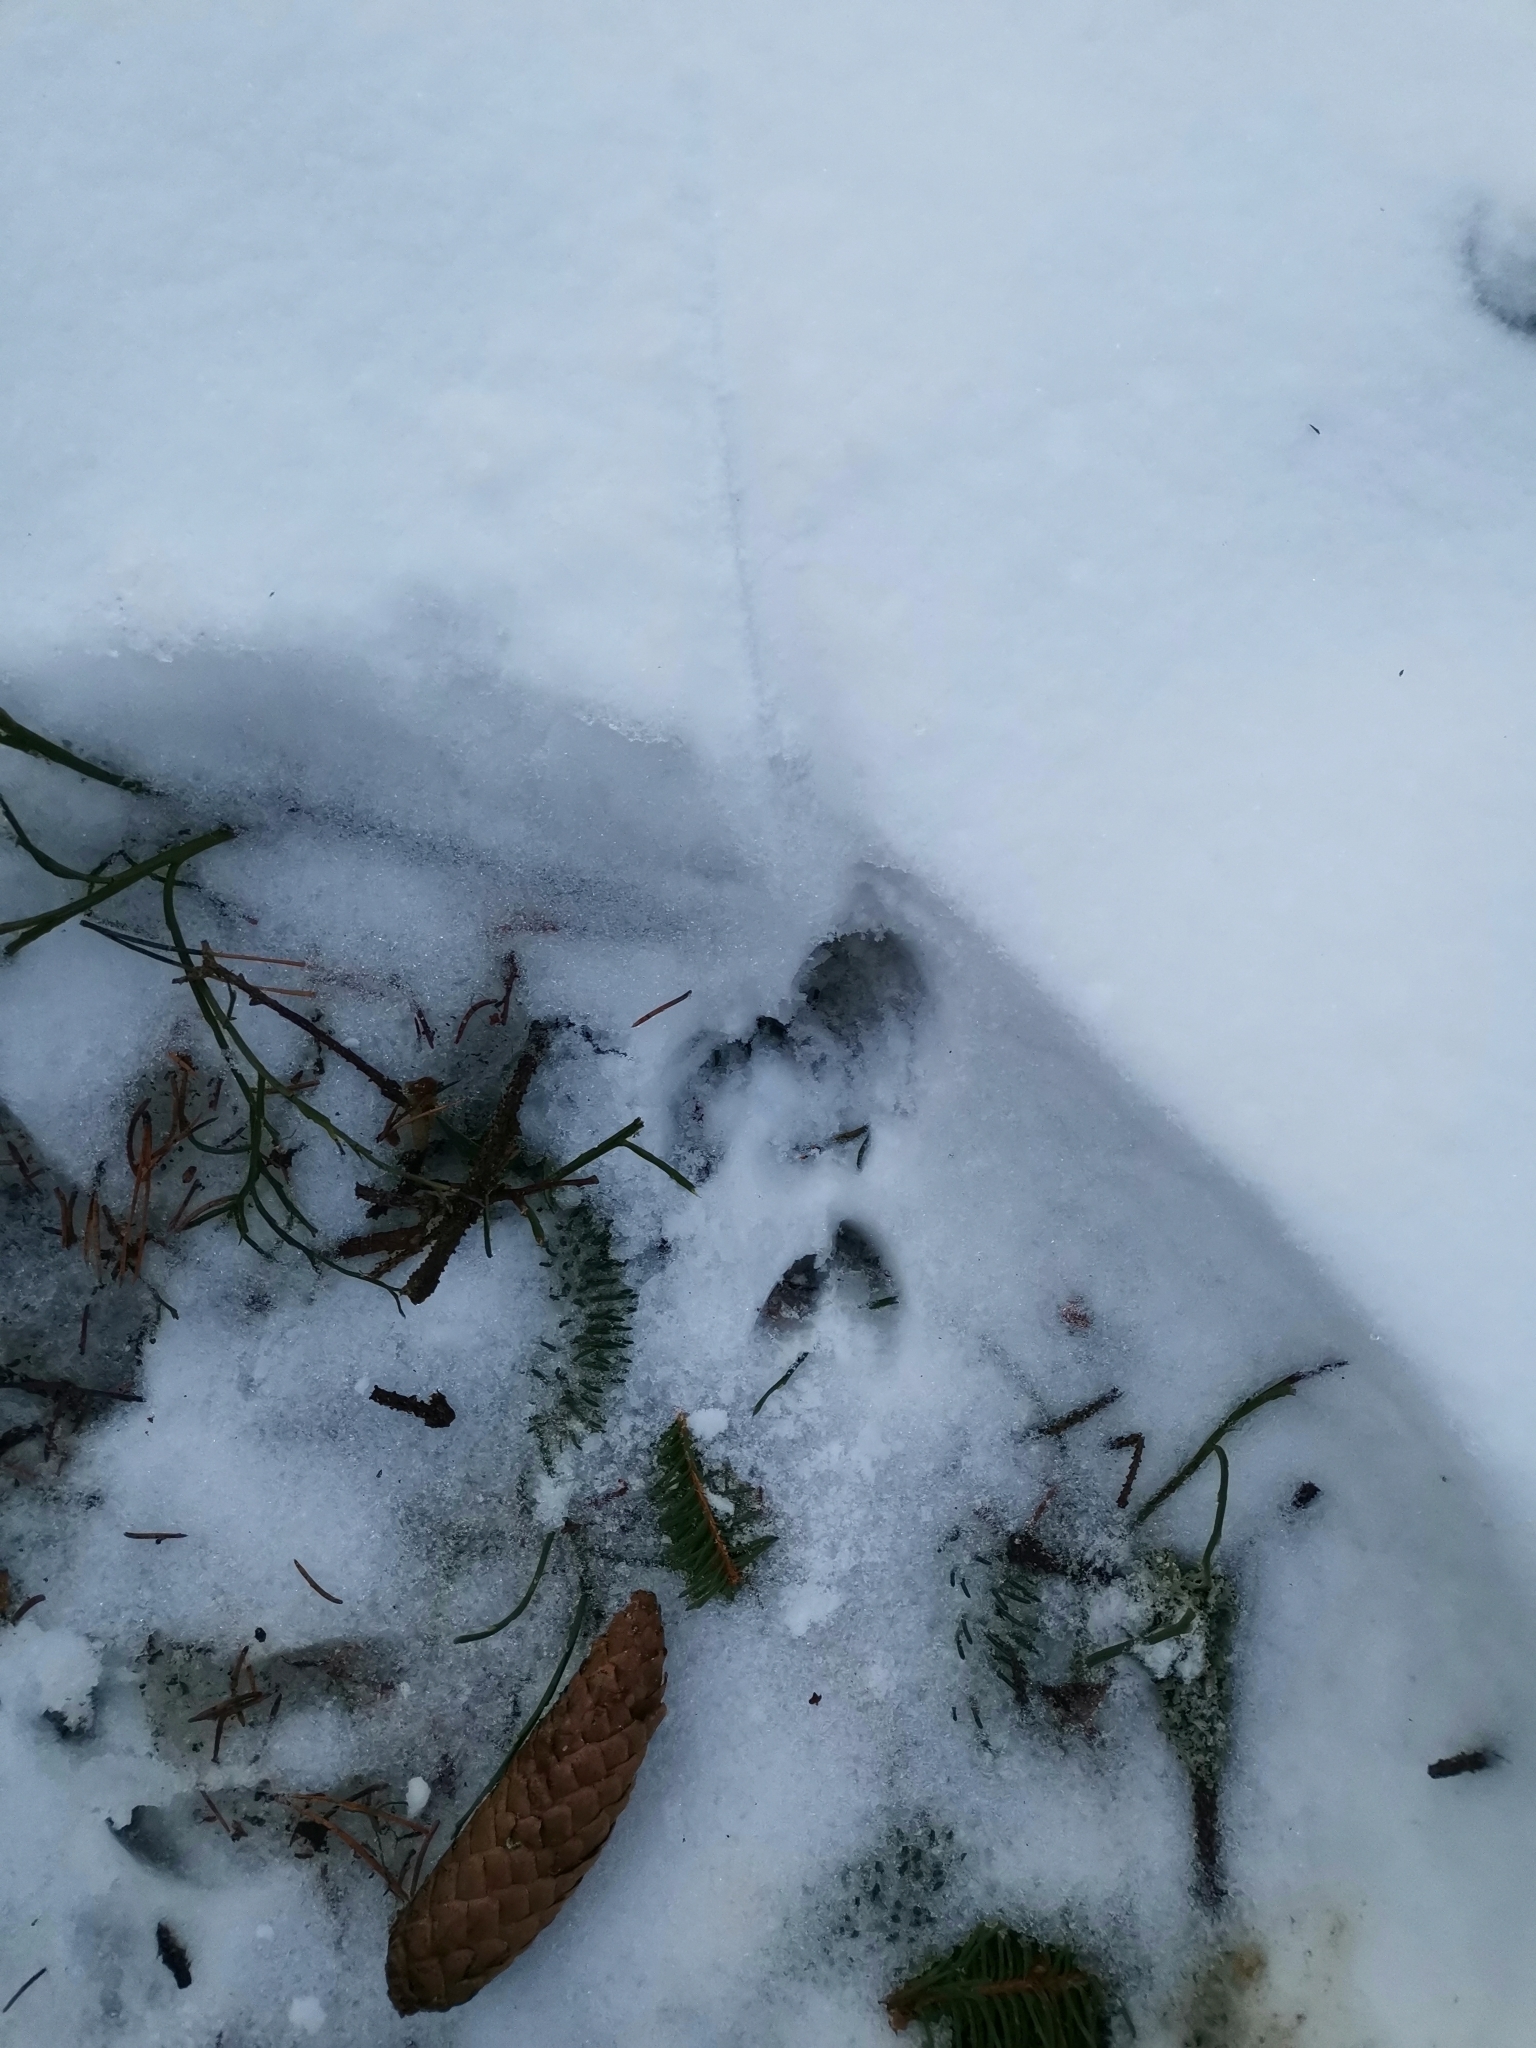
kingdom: Animalia
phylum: Chordata
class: Mammalia
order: Artiodactyla
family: Cervidae
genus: Capreolus
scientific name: Capreolus capreolus
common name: Western roe deer
